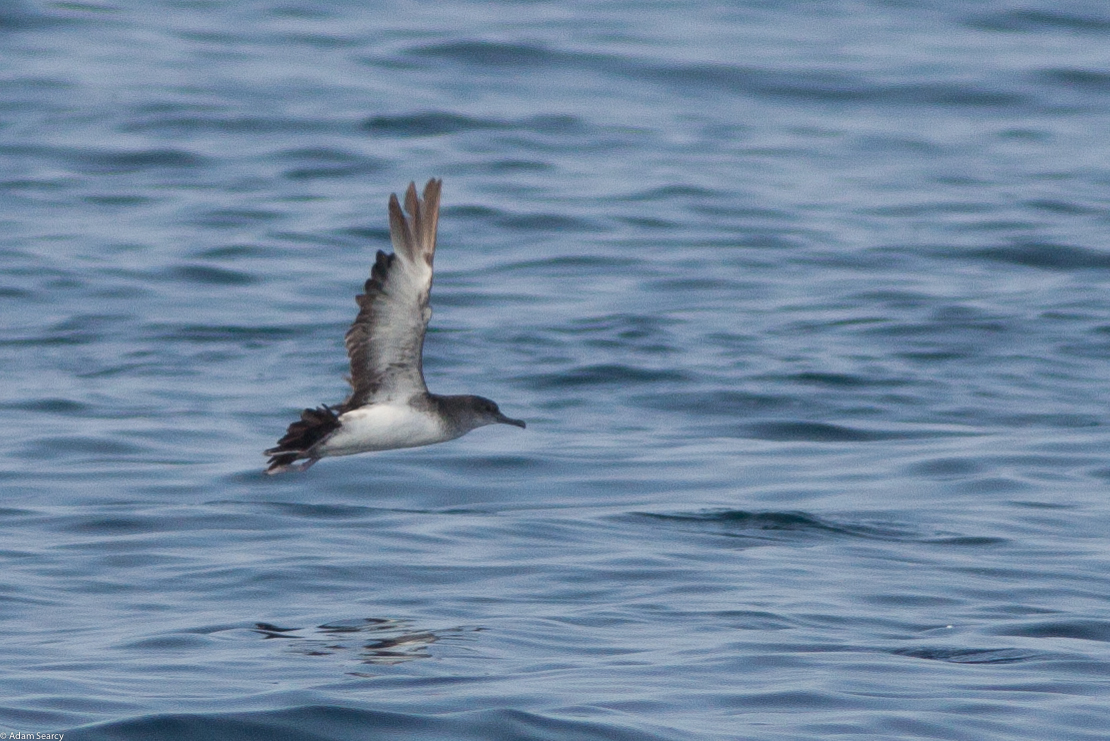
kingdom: Animalia
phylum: Chordata
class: Aves
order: Procellariiformes
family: Procellariidae
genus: Puffinus
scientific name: Puffinus opisthomelas
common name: Black-vented shearwater
